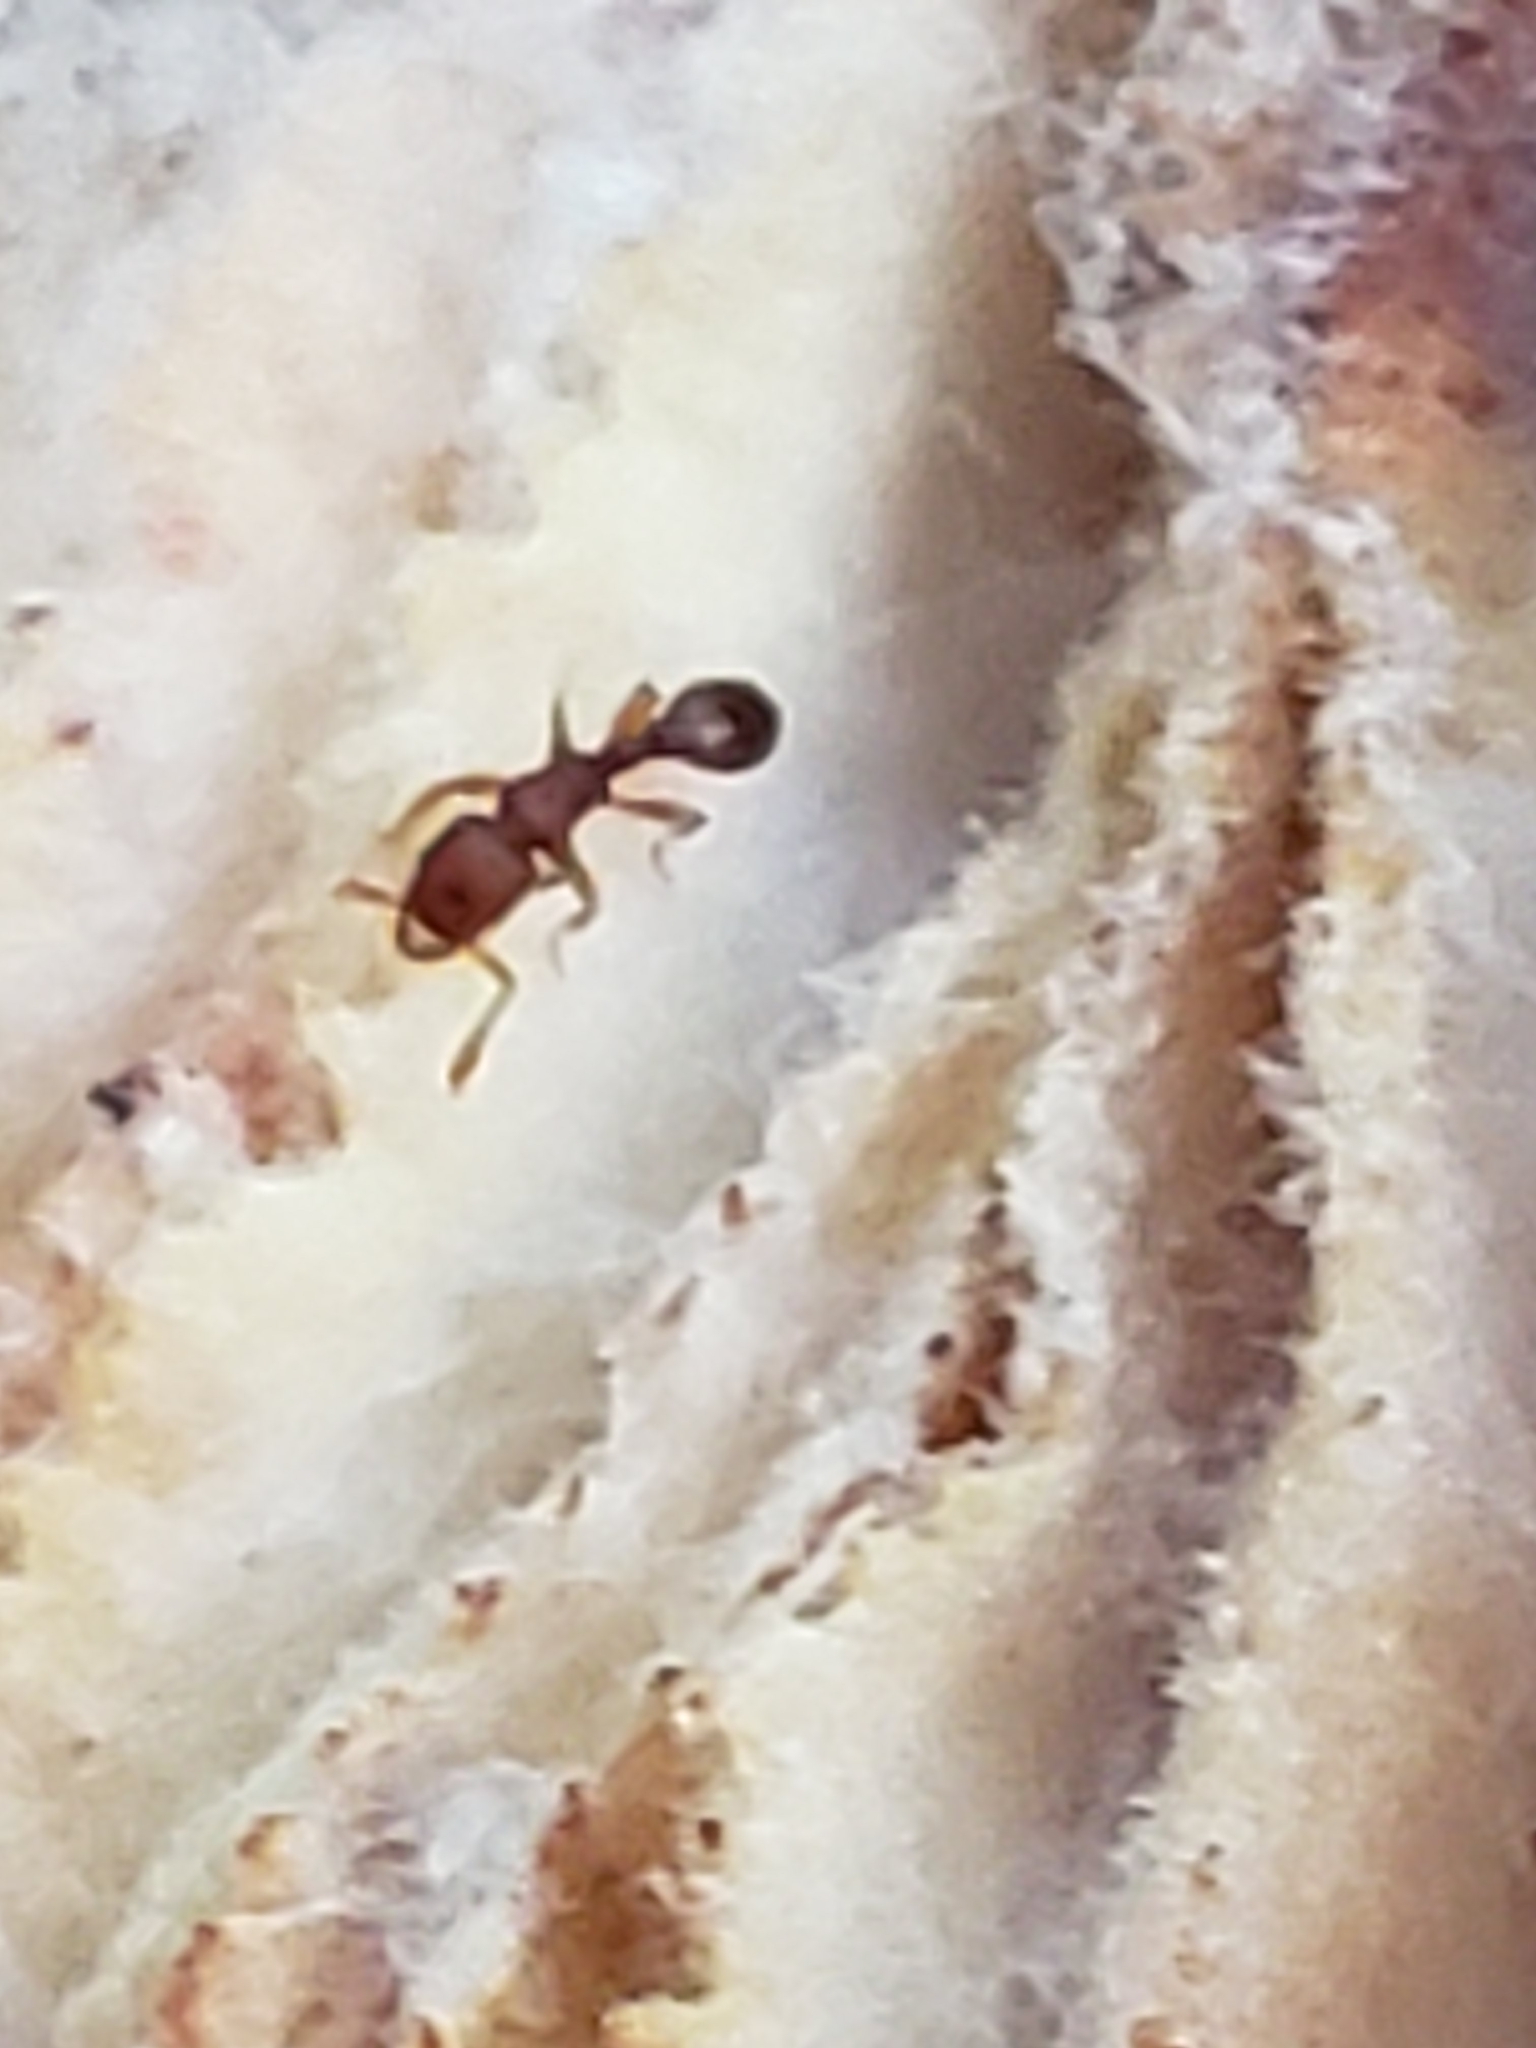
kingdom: Animalia
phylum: Arthropoda
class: Insecta
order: Hymenoptera
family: Formicidae
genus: Vollenhovia
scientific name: Vollenhovia emeryi
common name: Ant
